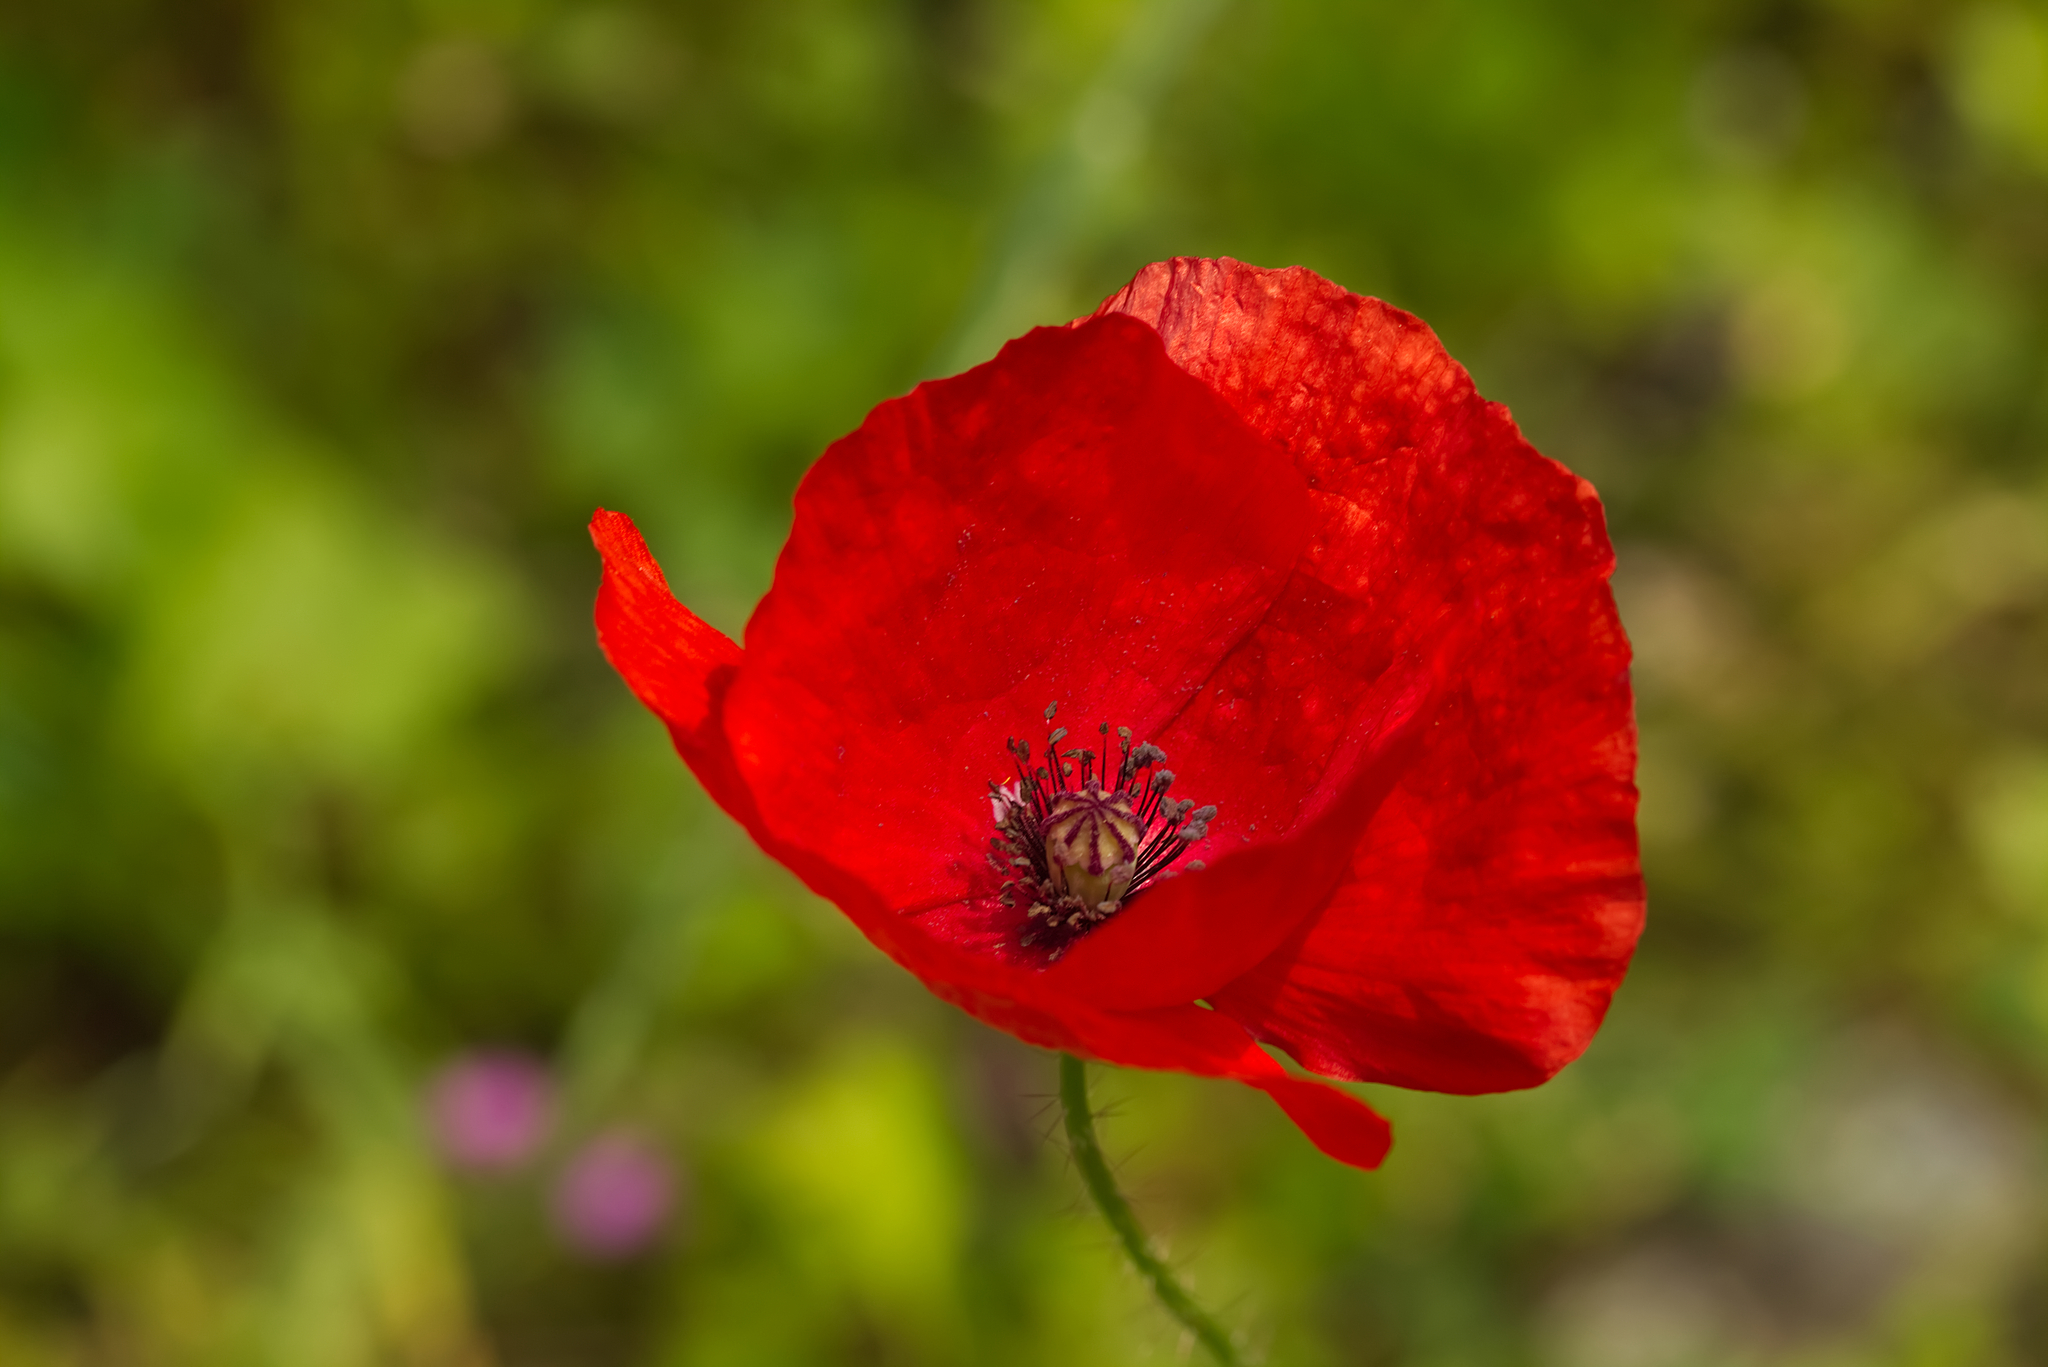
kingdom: Plantae
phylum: Tracheophyta
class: Magnoliopsida
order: Ranunculales
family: Papaveraceae
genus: Papaver
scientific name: Papaver rhoeas
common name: Corn poppy
